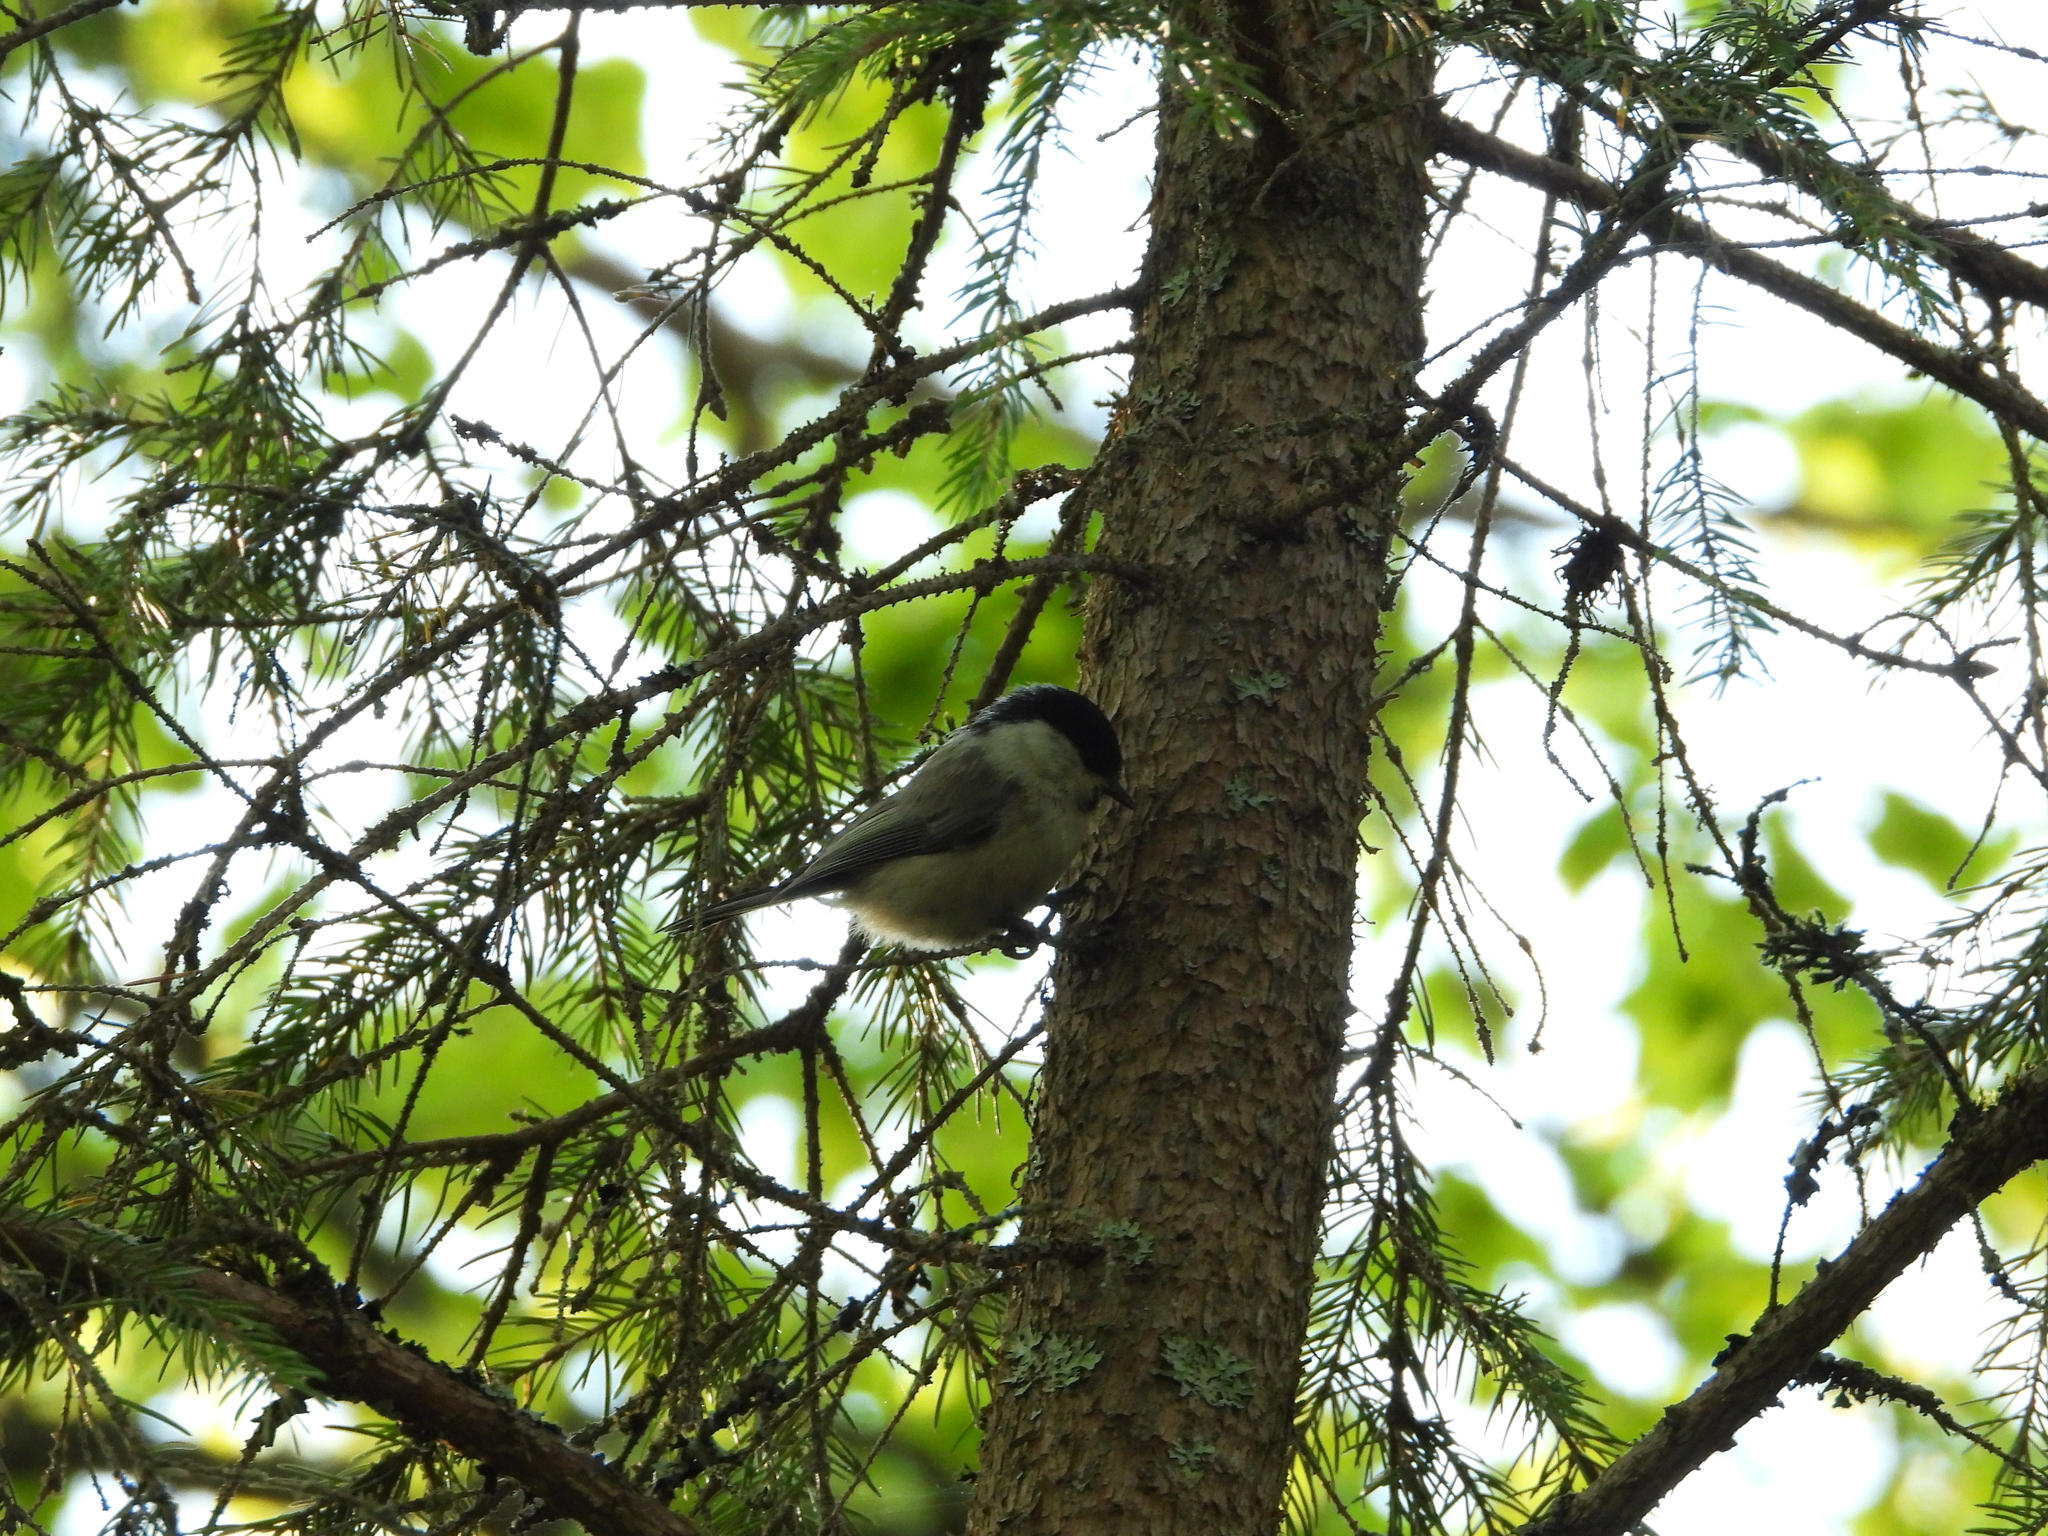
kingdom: Animalia
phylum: Chordata
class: Aves
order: Passeriformes
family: Paridae
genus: Poecile
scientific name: Poecile montanus
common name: Willow tit
